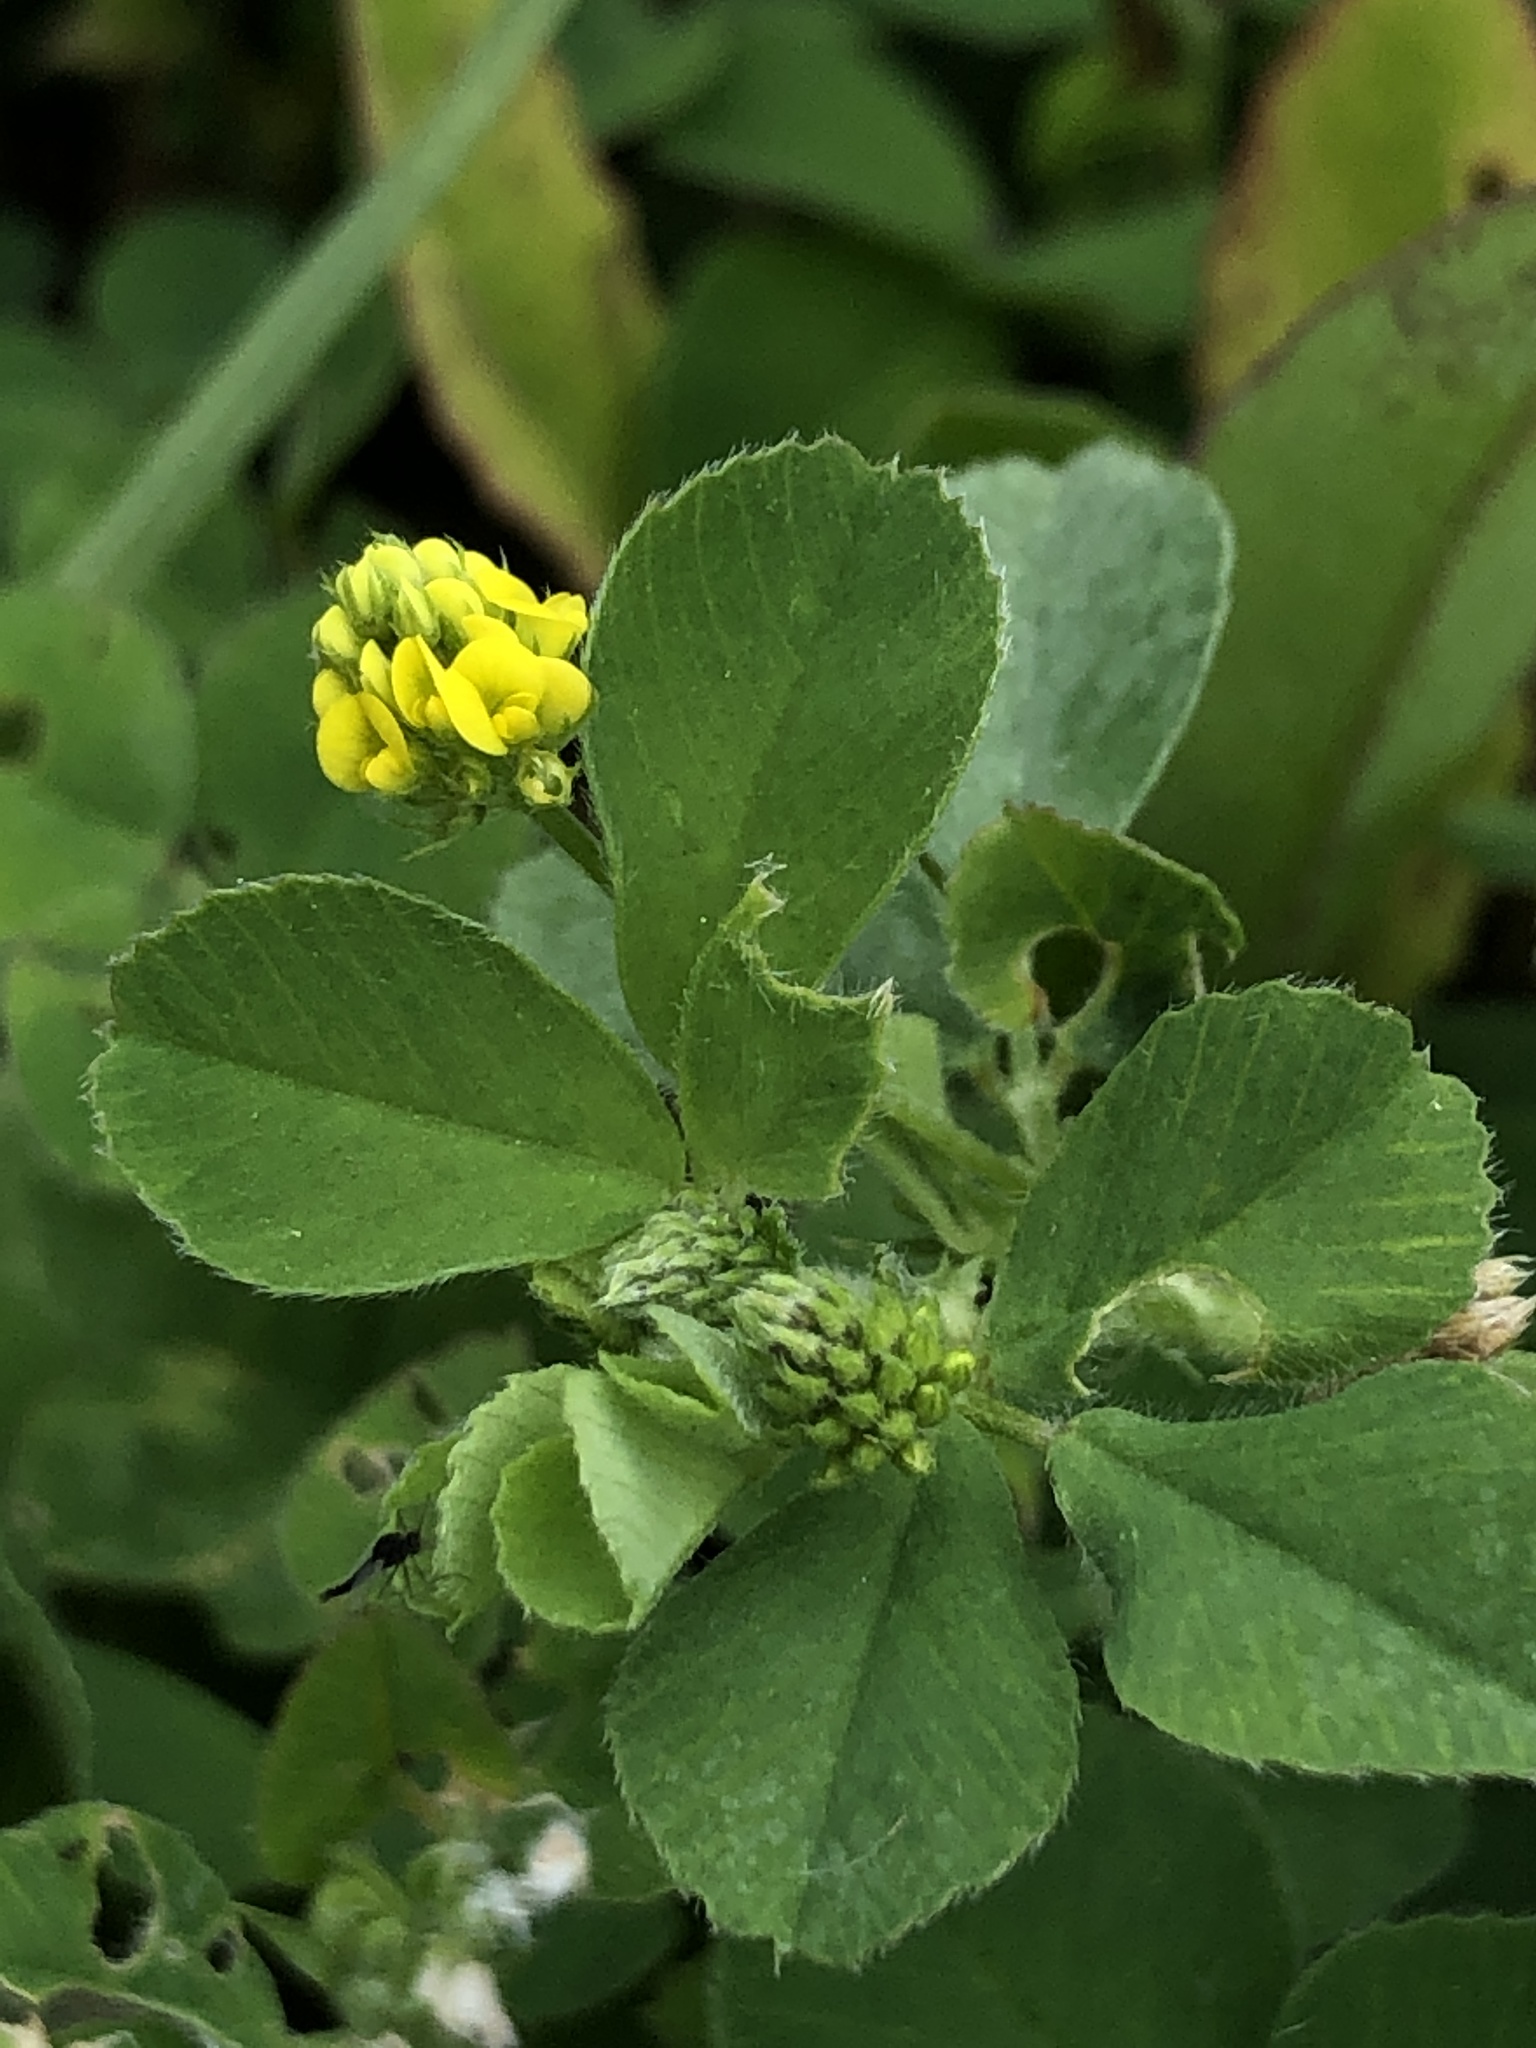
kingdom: Plantae
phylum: Tracheophyta
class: Magnoliopsida
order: Fabales
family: Fabaceae
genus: Medicago
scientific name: Medicago lupulina
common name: Black medick
